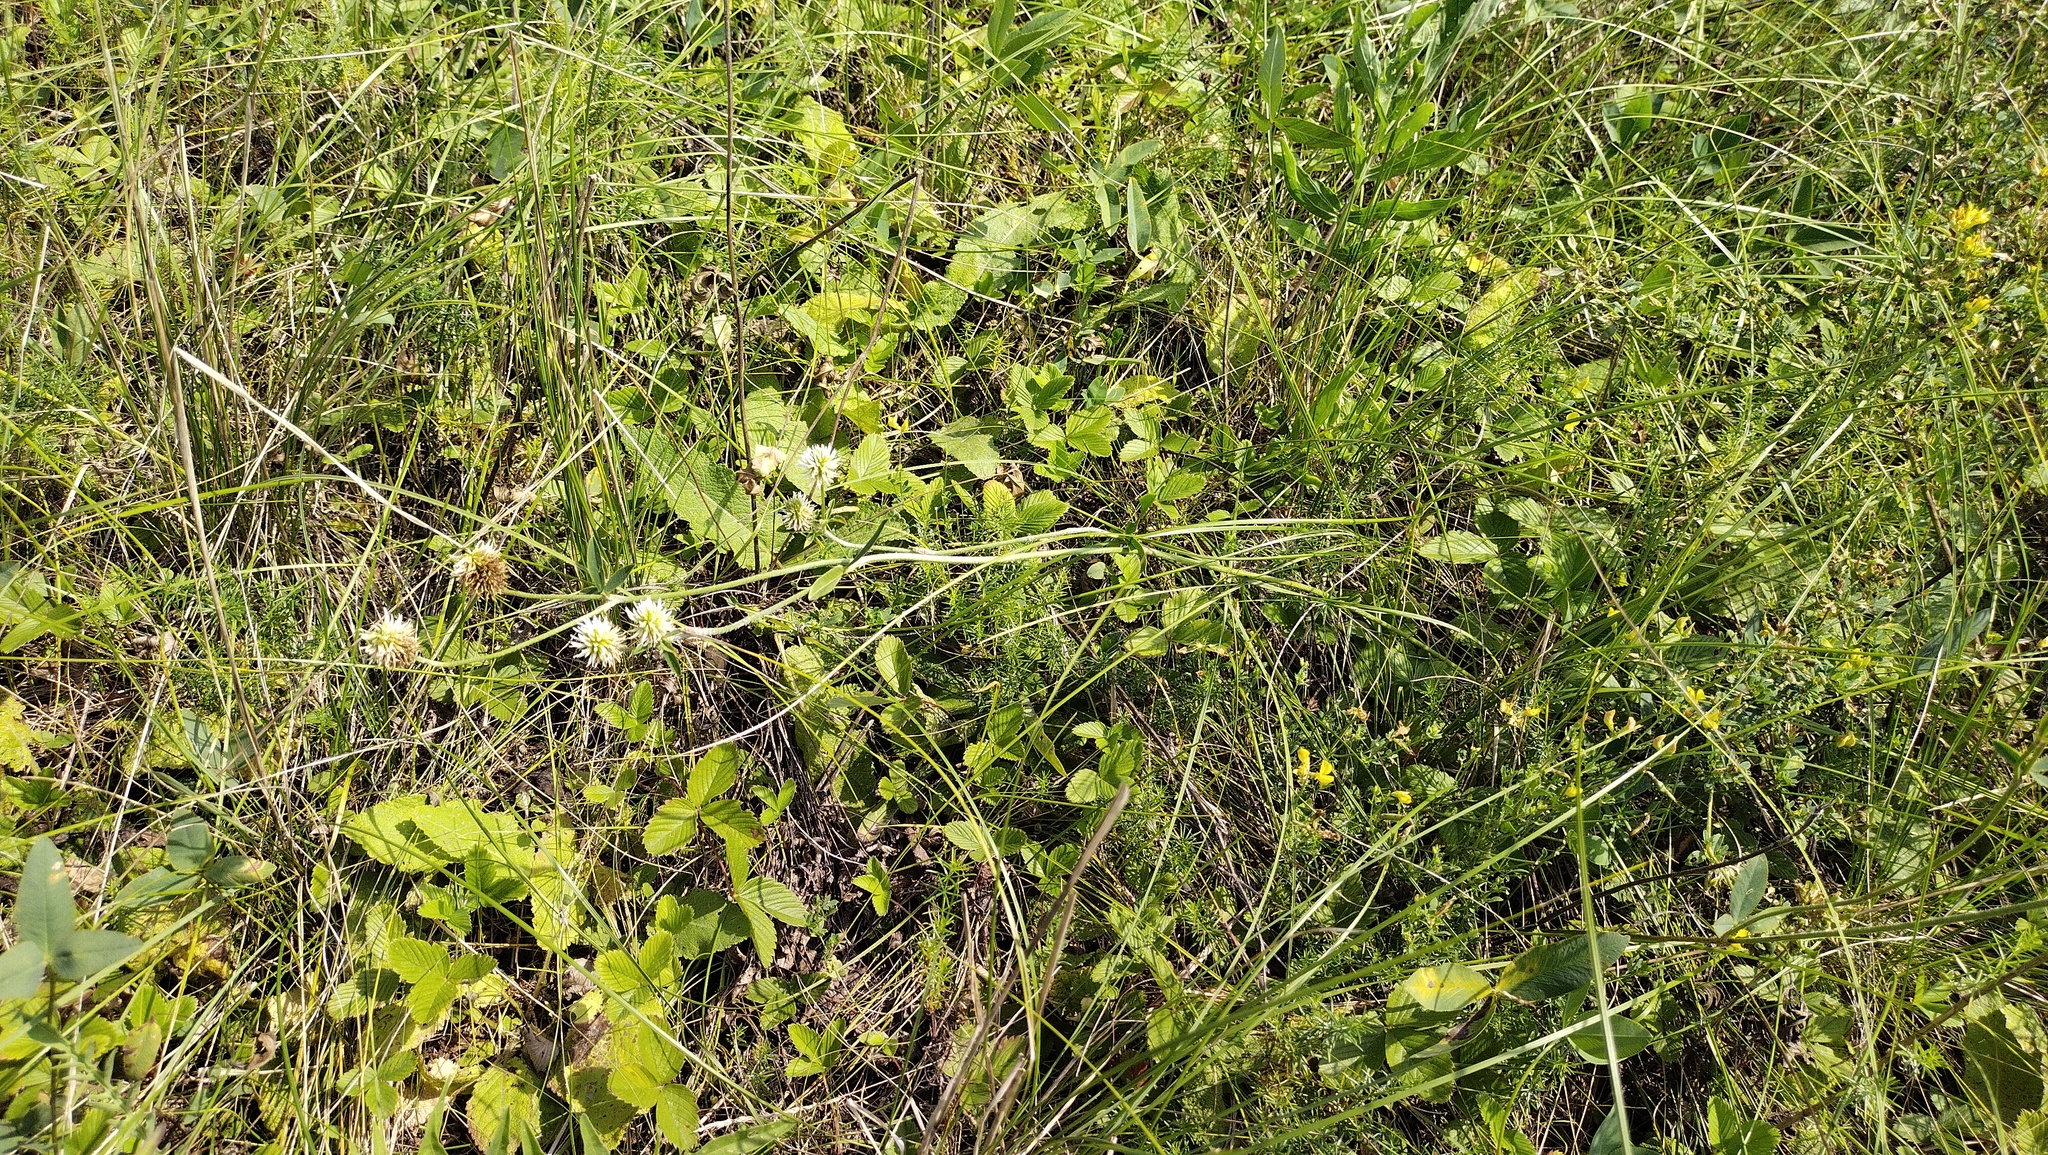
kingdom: Plantae
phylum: Tracheophyta
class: Magnoliopsida
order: Fabales
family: Fabaceae
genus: Trifolium
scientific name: Trifolium montanum
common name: Mountain clover
